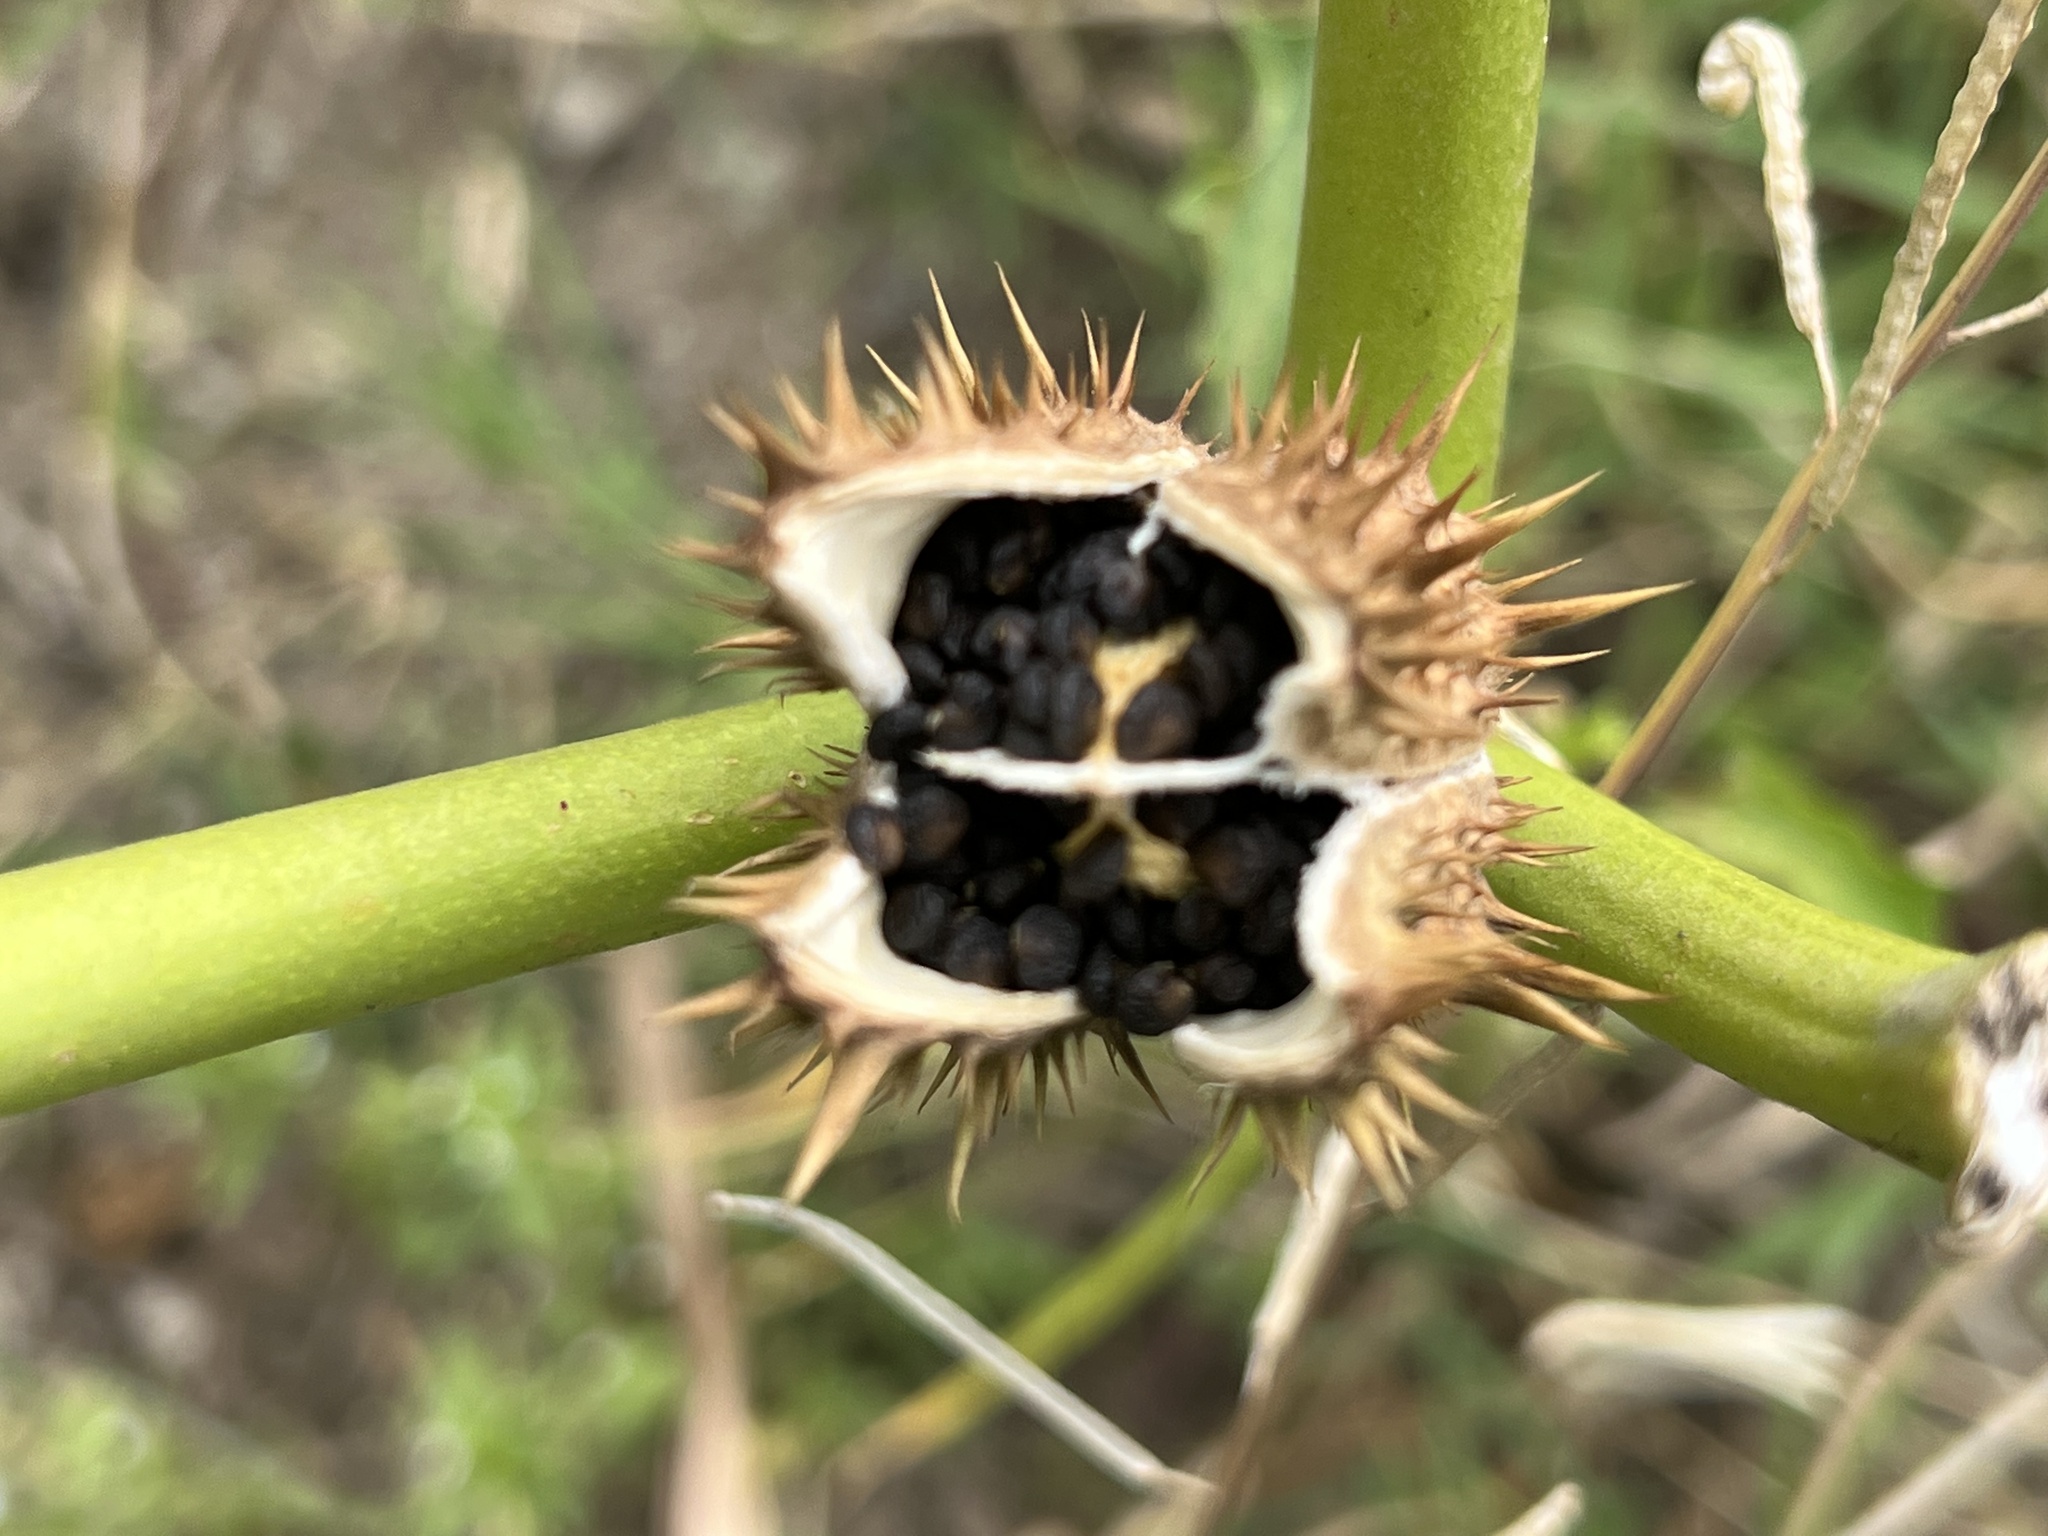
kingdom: Plantae
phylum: Tracheophyta
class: Magnoliopsida
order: Solanales
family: Solanaceae
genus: Datura
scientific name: Datura stramonium
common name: Thorn-apple
